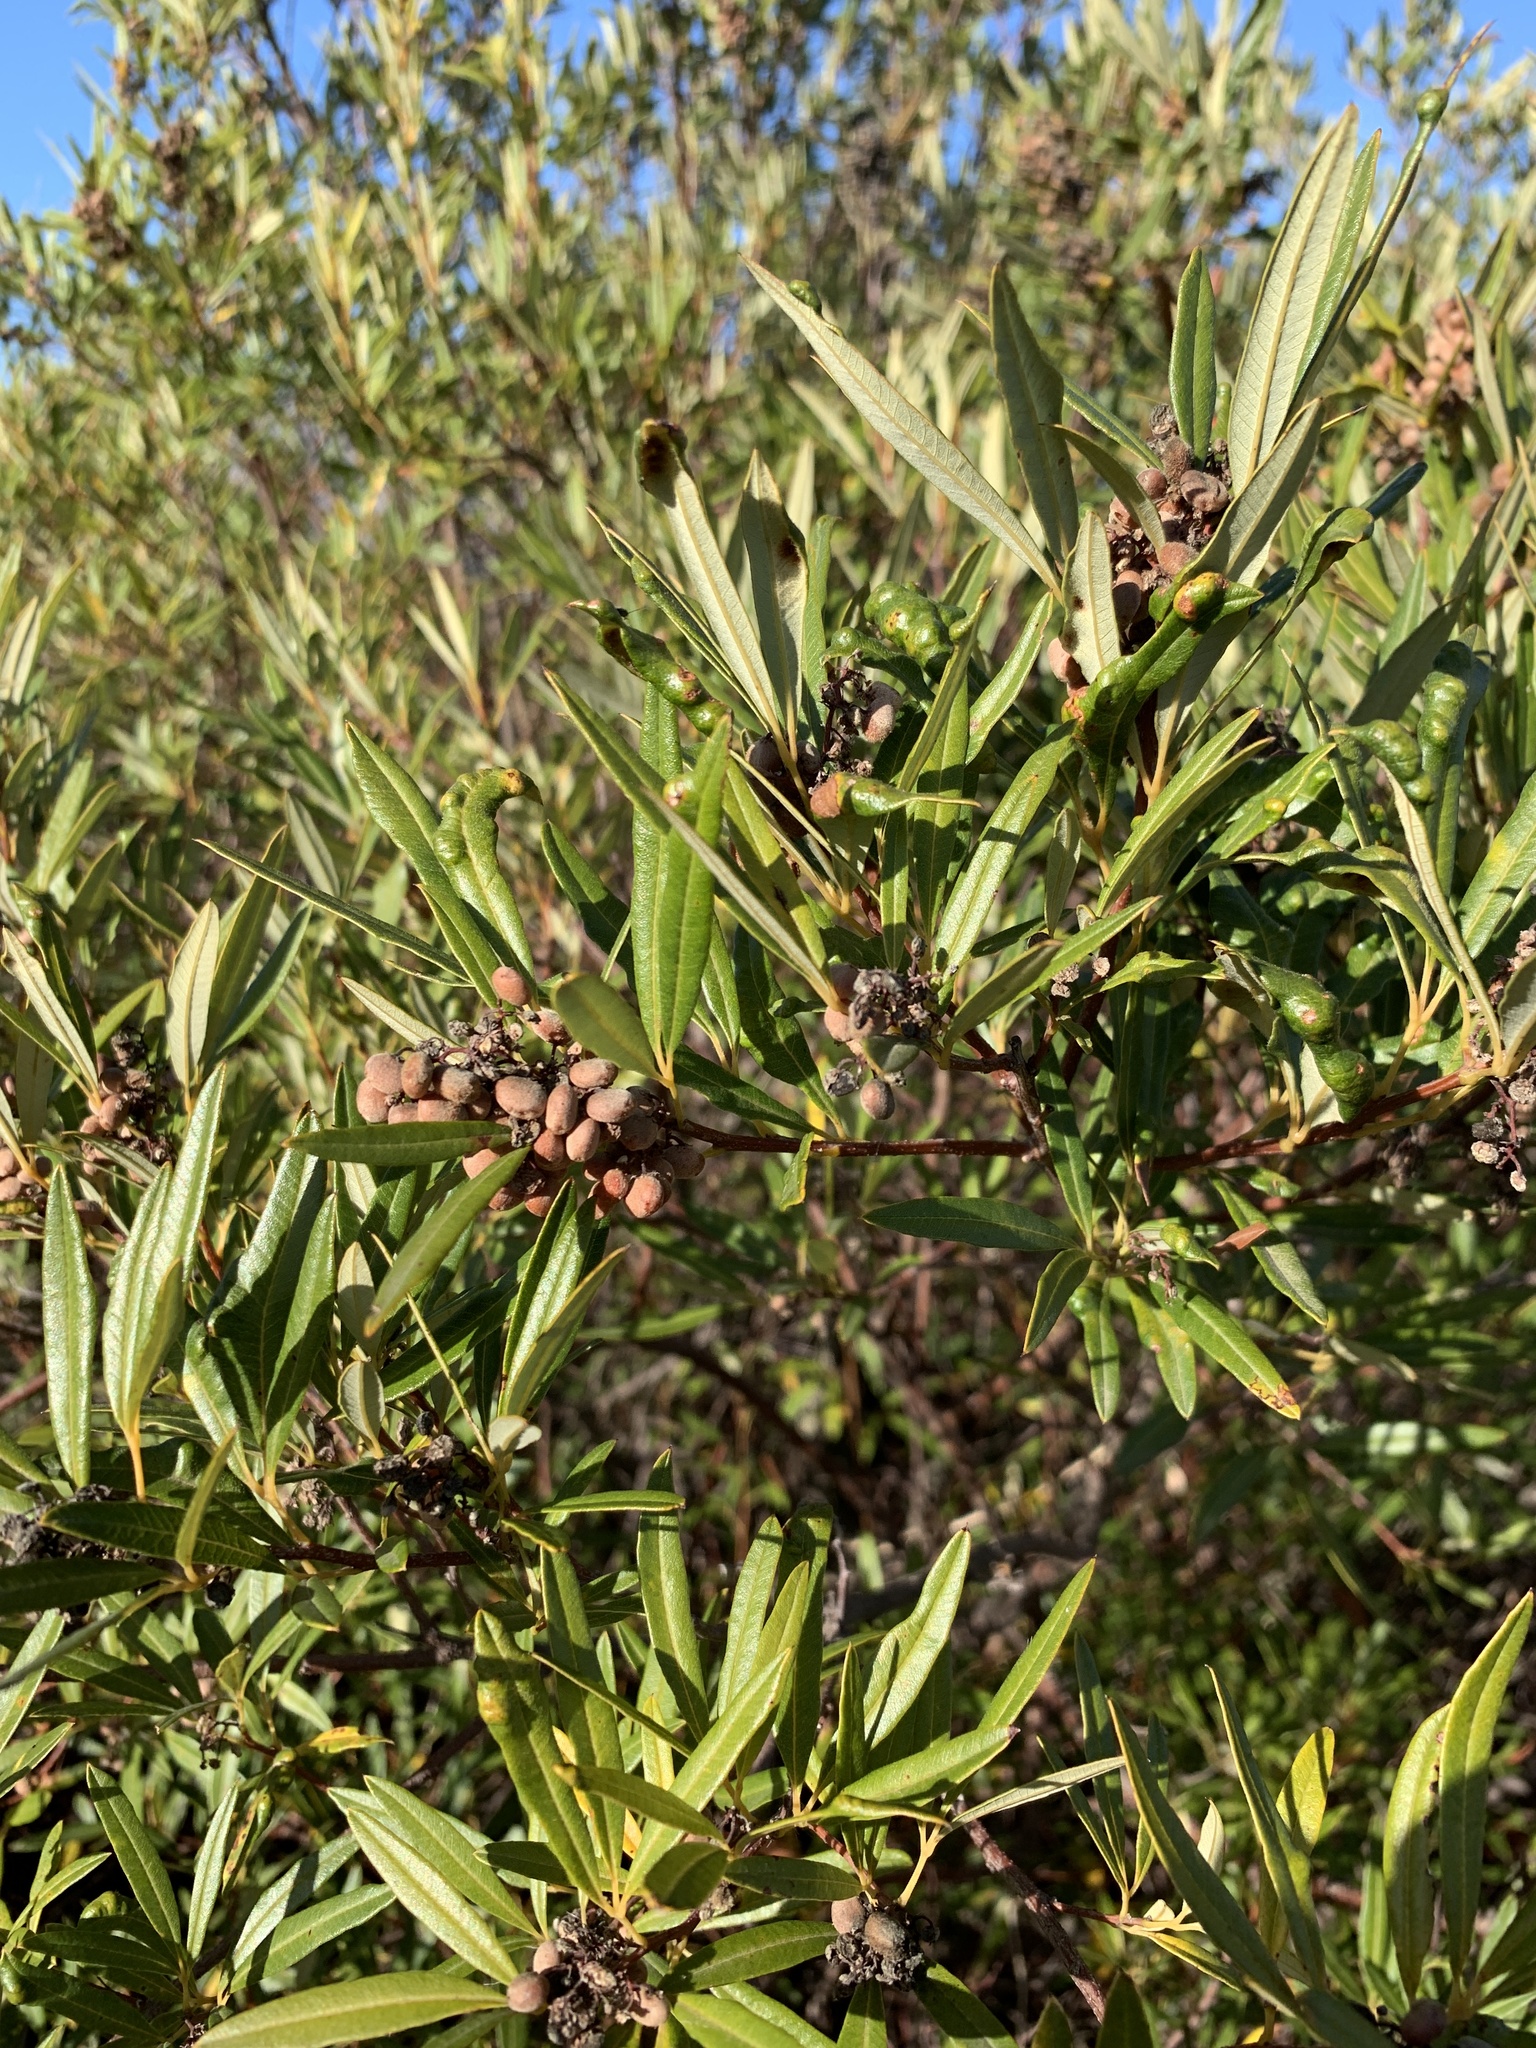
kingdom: Plantae
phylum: Tracheophyta
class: Magnoliopsida
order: Sapindales
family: Anacardiaceae
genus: Searsia
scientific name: Searsia angustifolia
